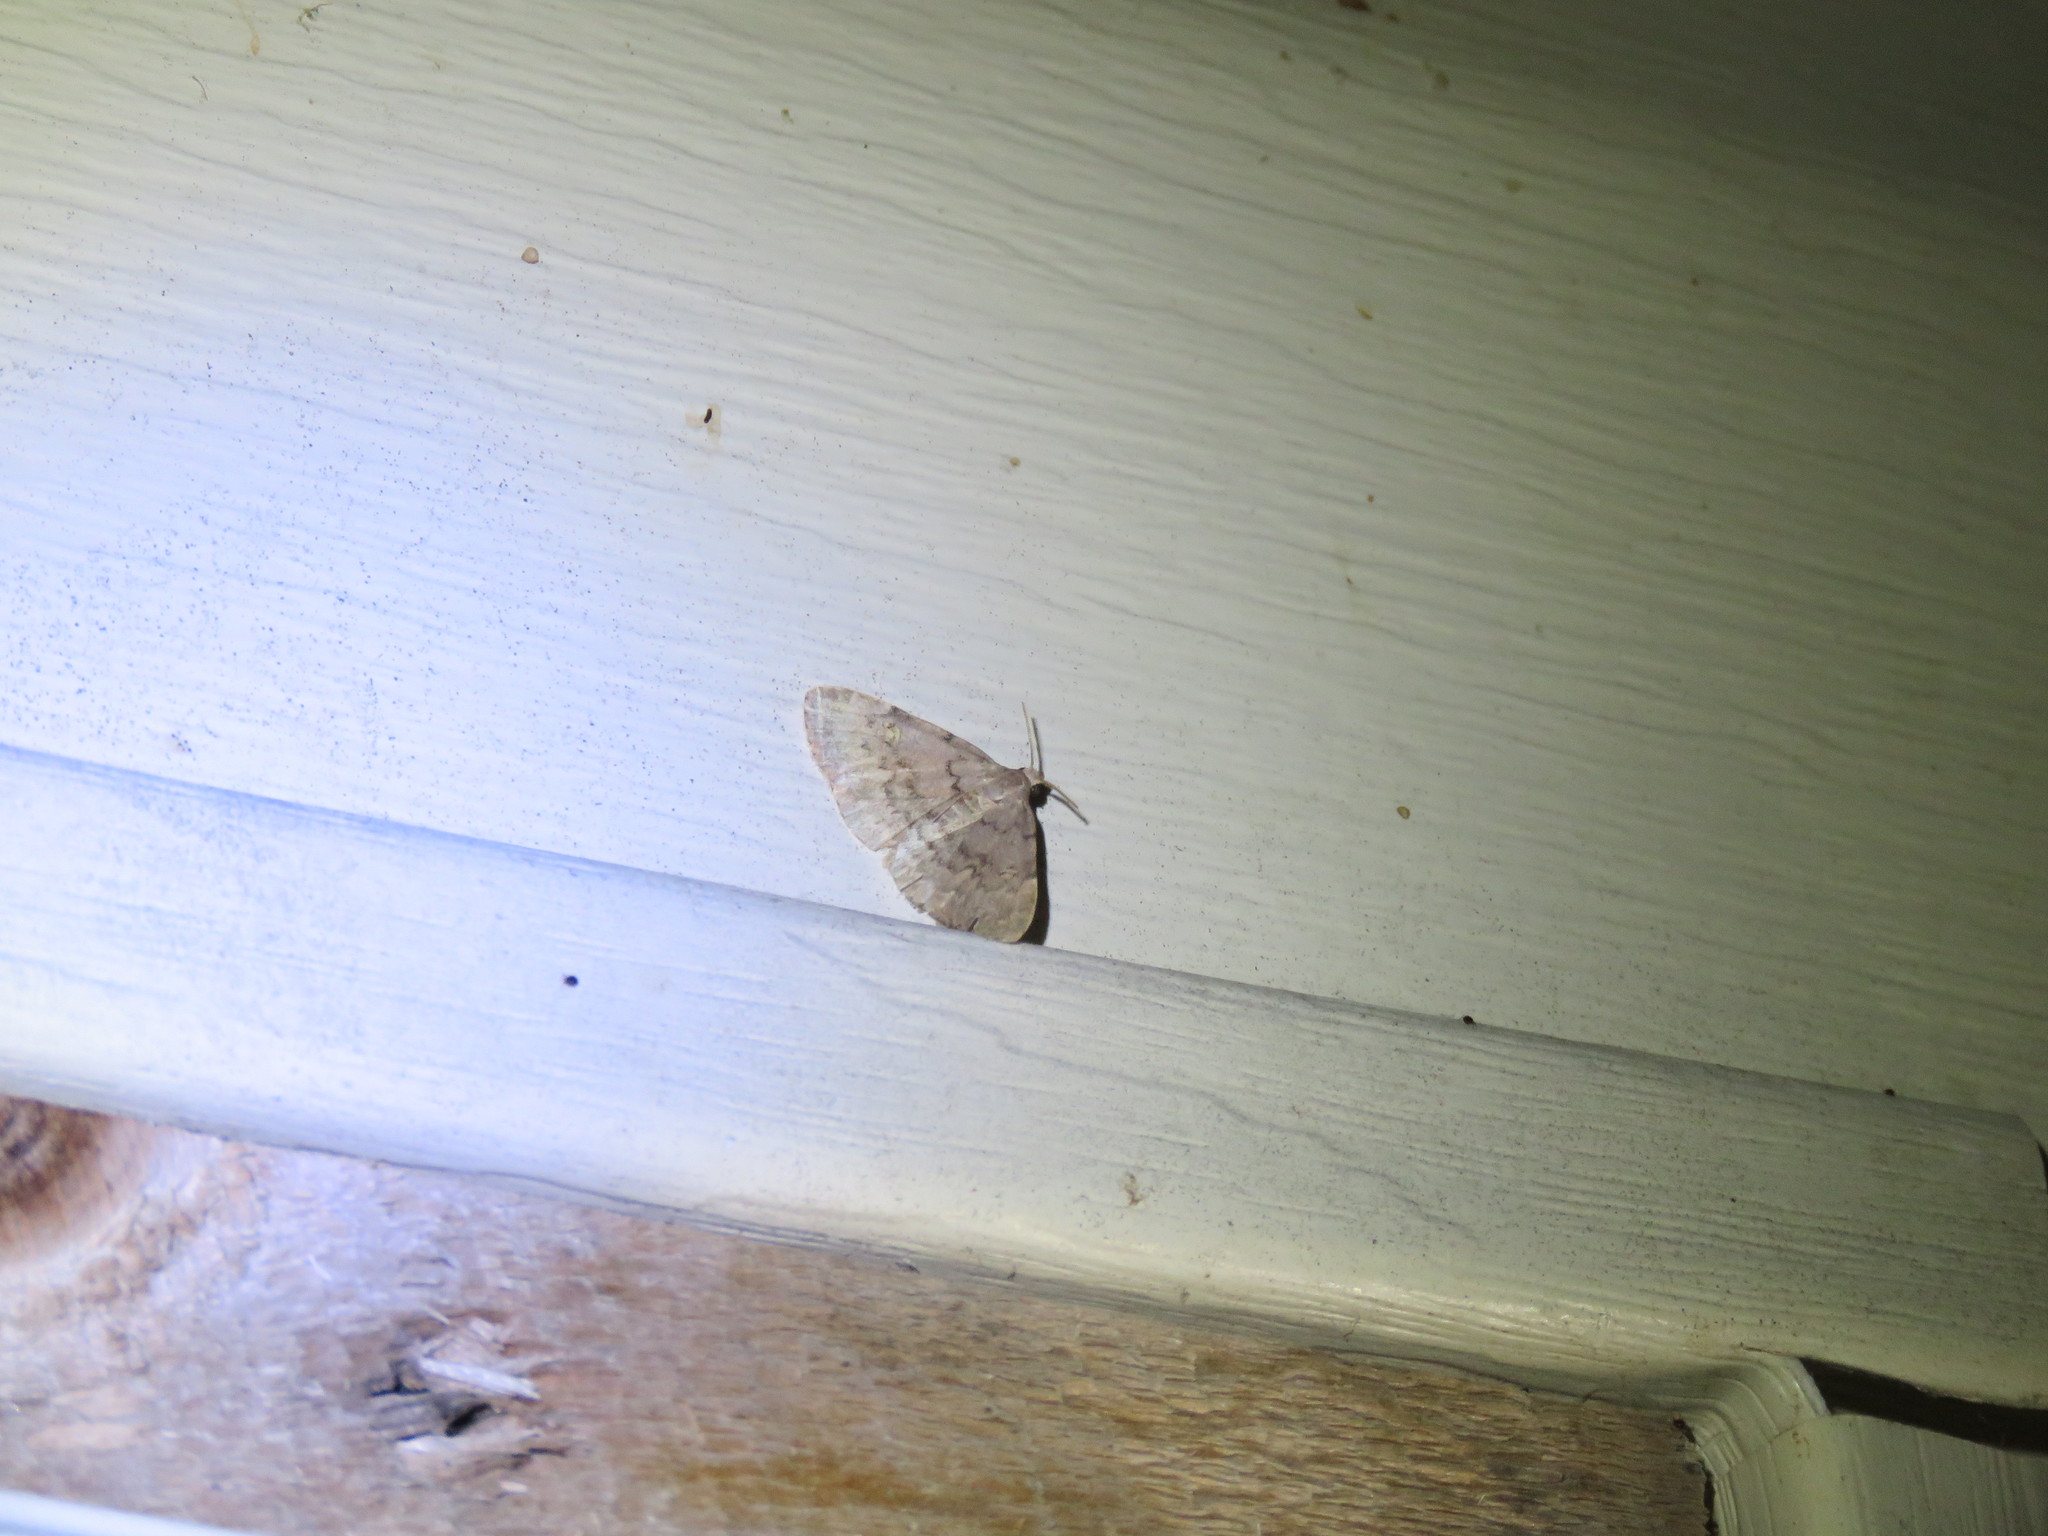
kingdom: Animalia
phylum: Arthropoda
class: Insecta
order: Lepidoptera
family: Erebidae
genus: Idia
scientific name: Idia aemula
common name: Common idia moth
